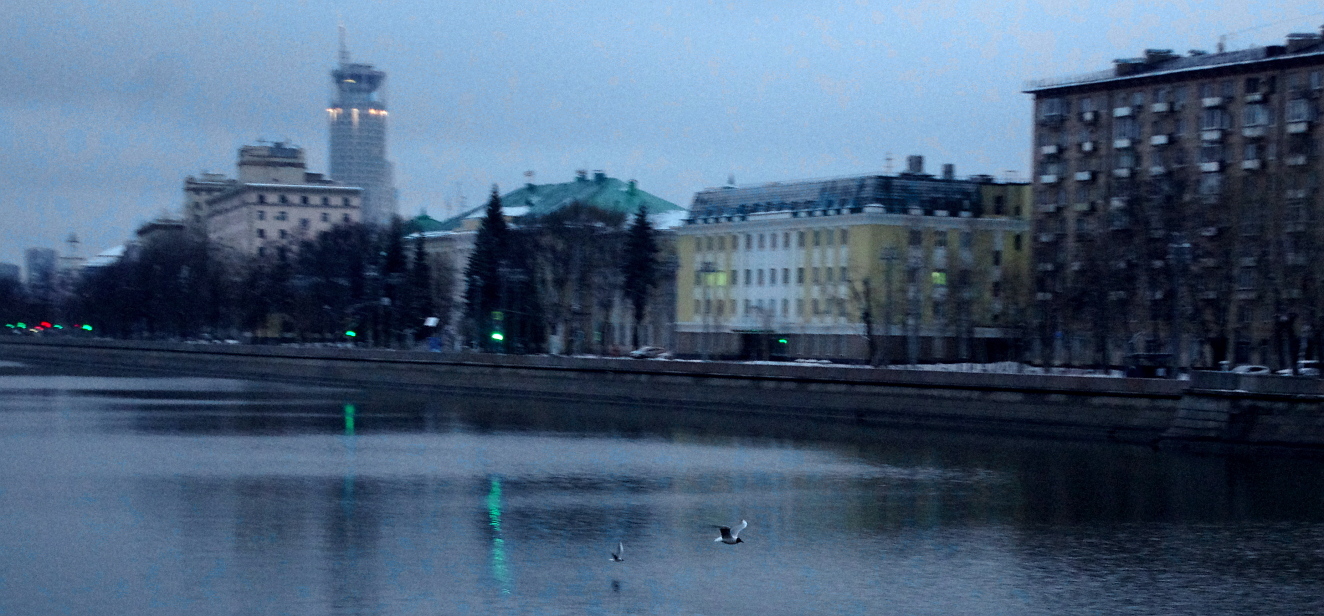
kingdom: Animalia
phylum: Chordata
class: Aves
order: Charadriiformes
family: Laridae
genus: Chroicocephalus
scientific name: Chroicocephalus ridibundus
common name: Black-headed gull
